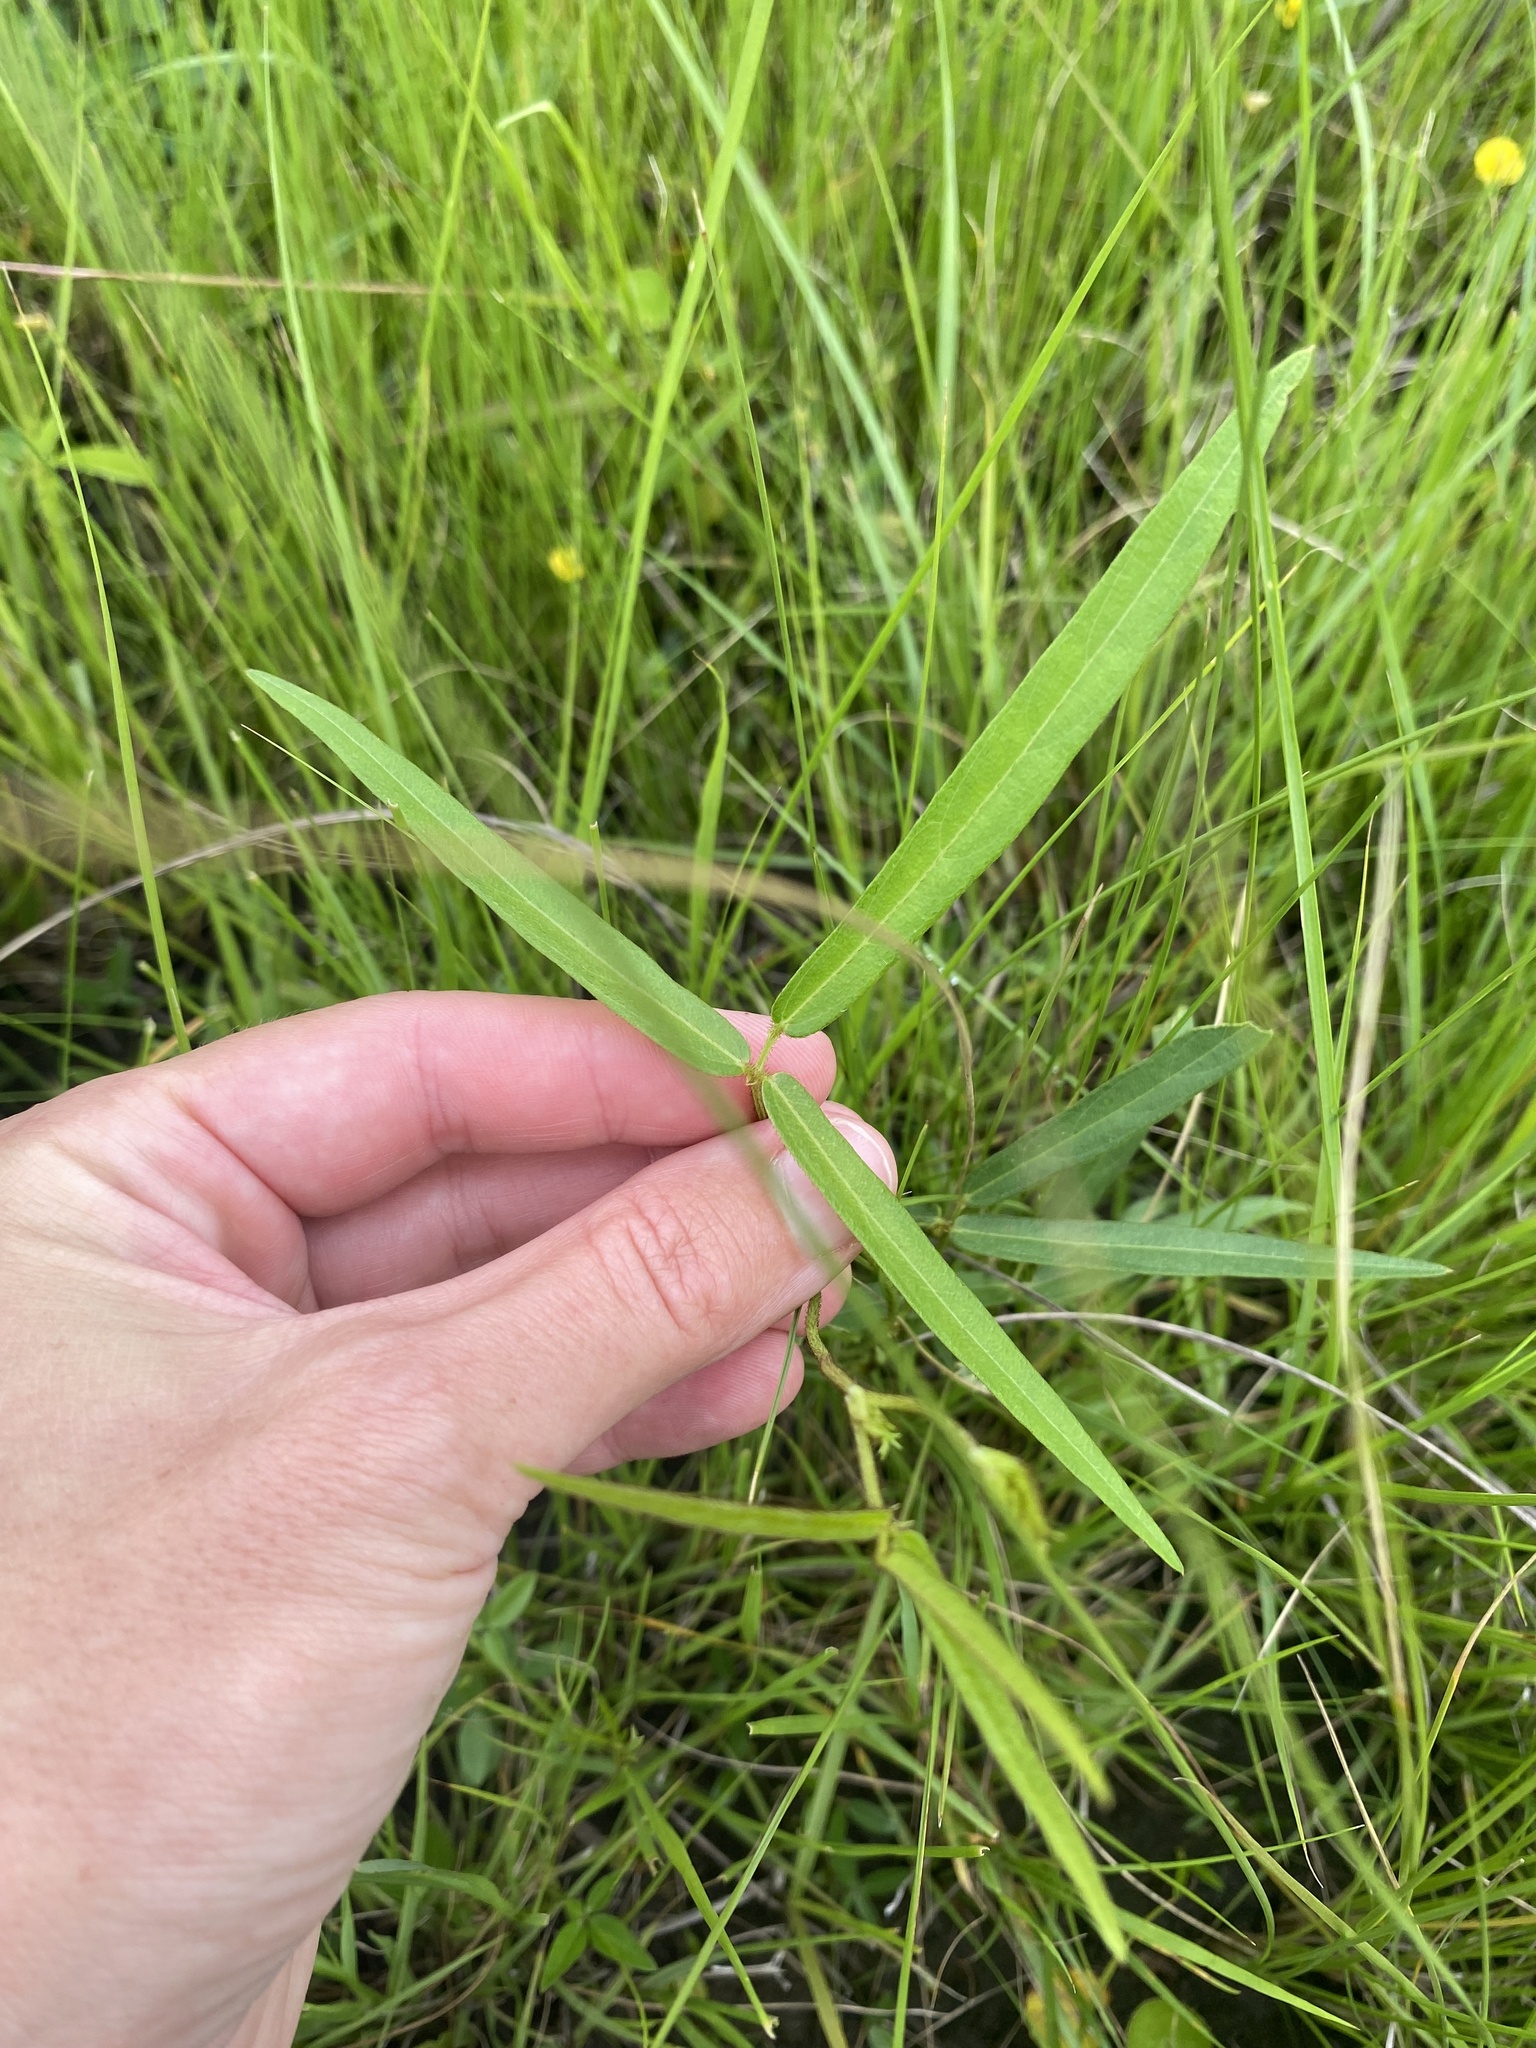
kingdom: Plantae
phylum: Tracheophyta
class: Liliopsida
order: Poales
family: Poaceae
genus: Eragrostis
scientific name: Eragrostis capensis
